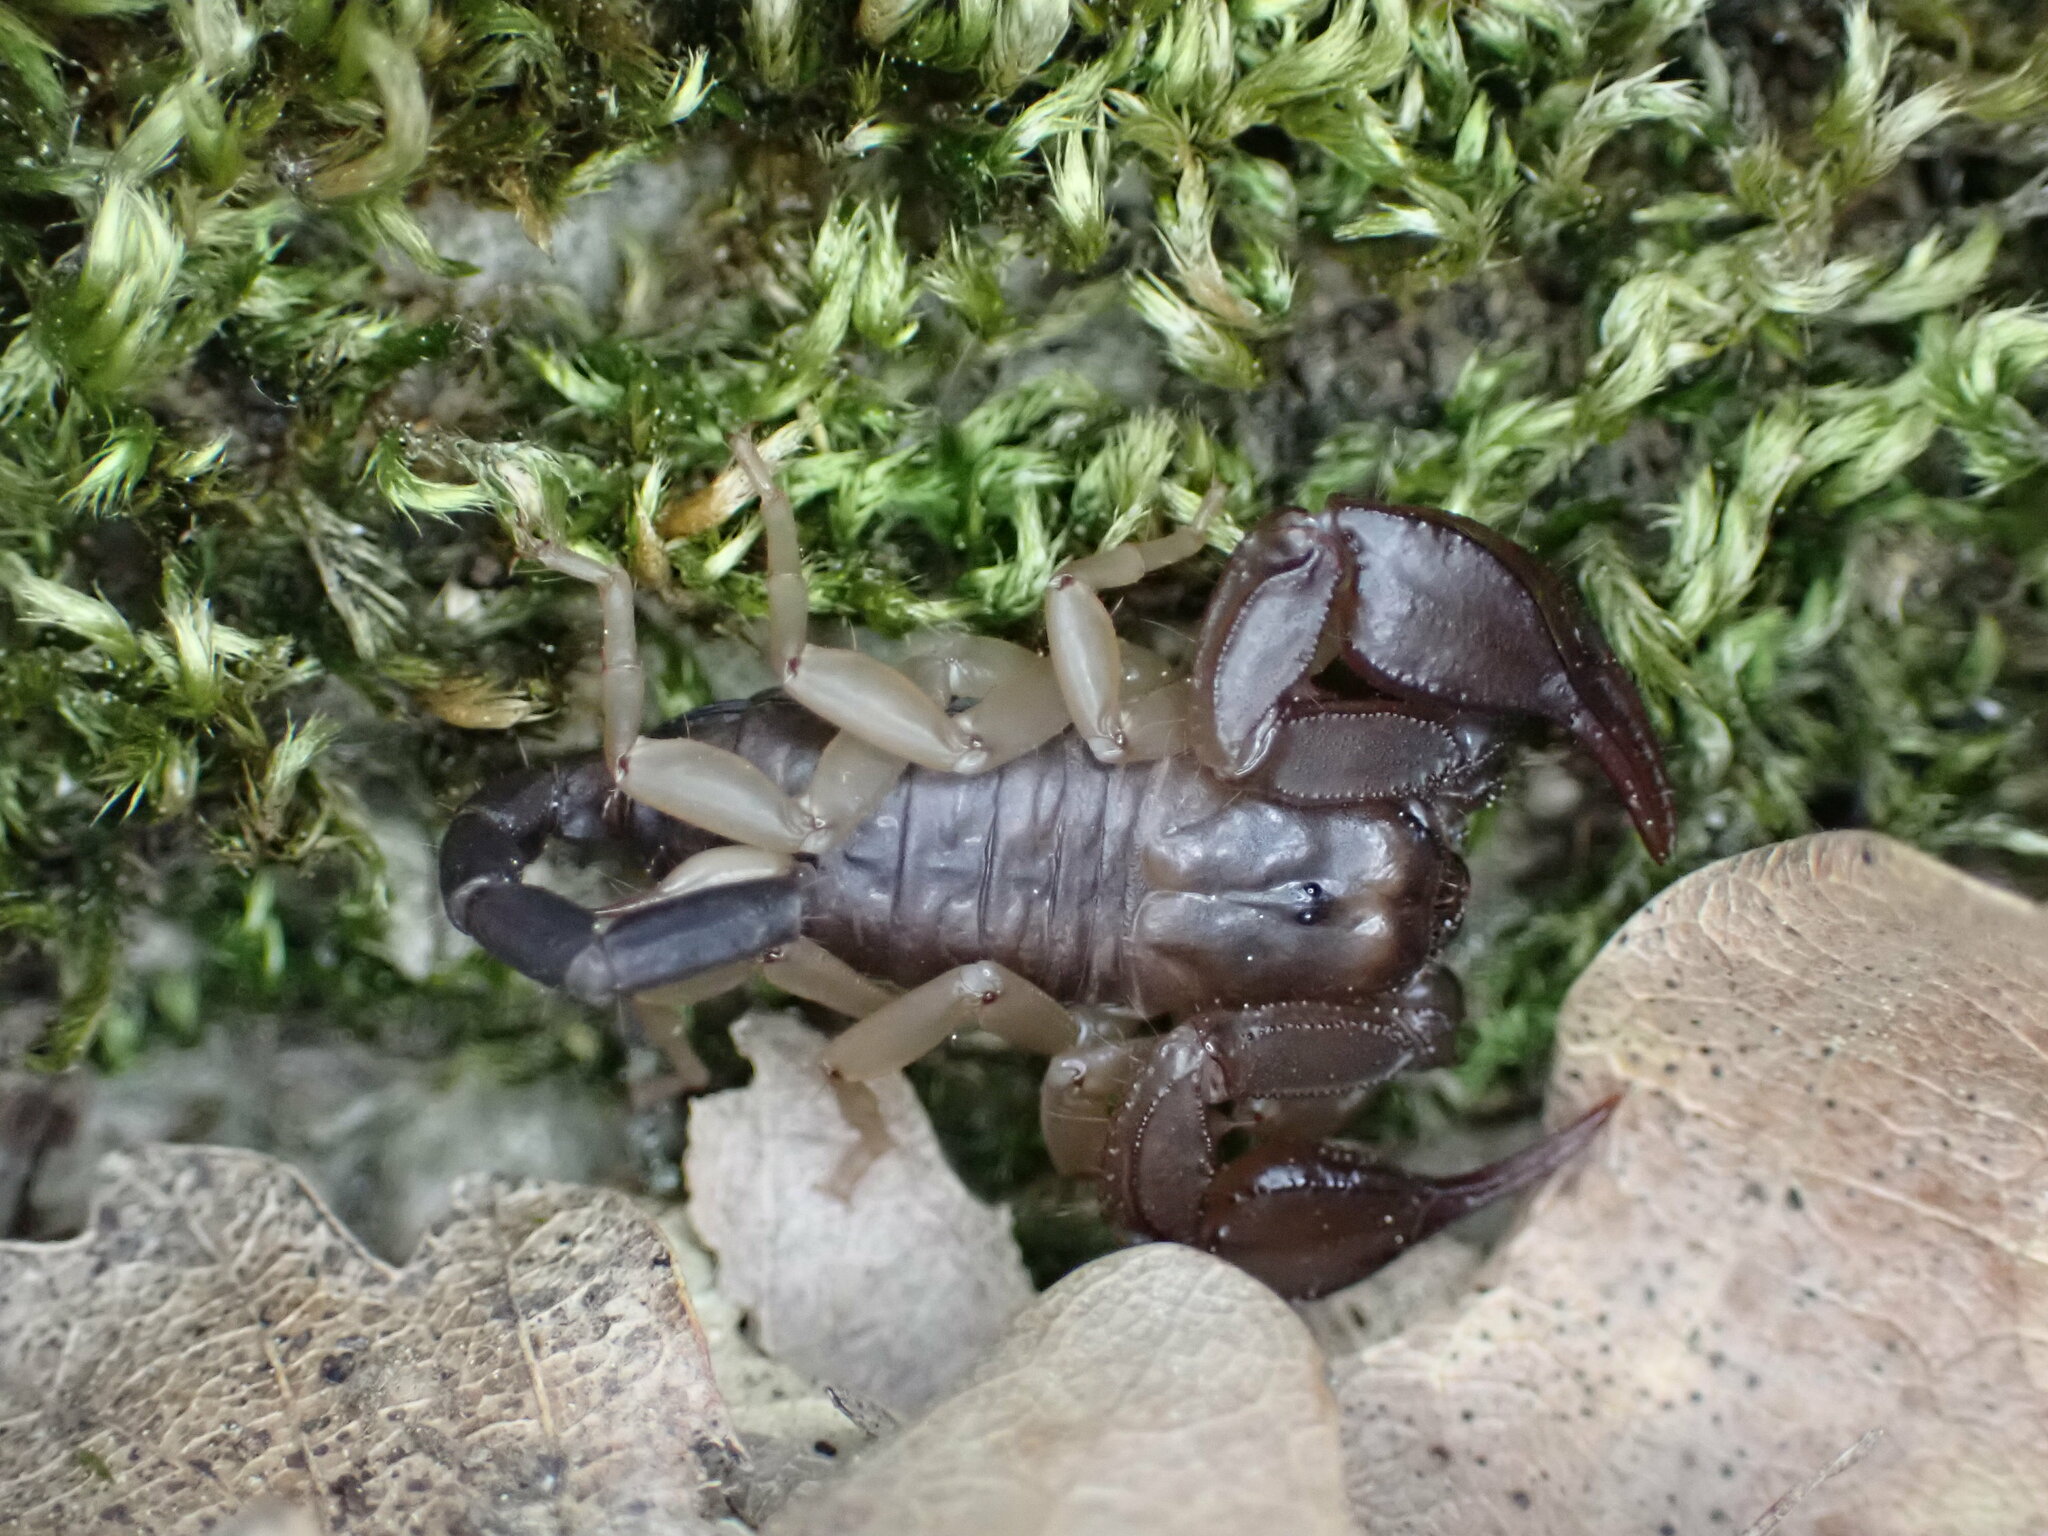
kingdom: Animalia
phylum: Arthropoda
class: Arachnida
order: Scorpiones
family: Euscorpiidae
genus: Euscorpius
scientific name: Euscorpius
